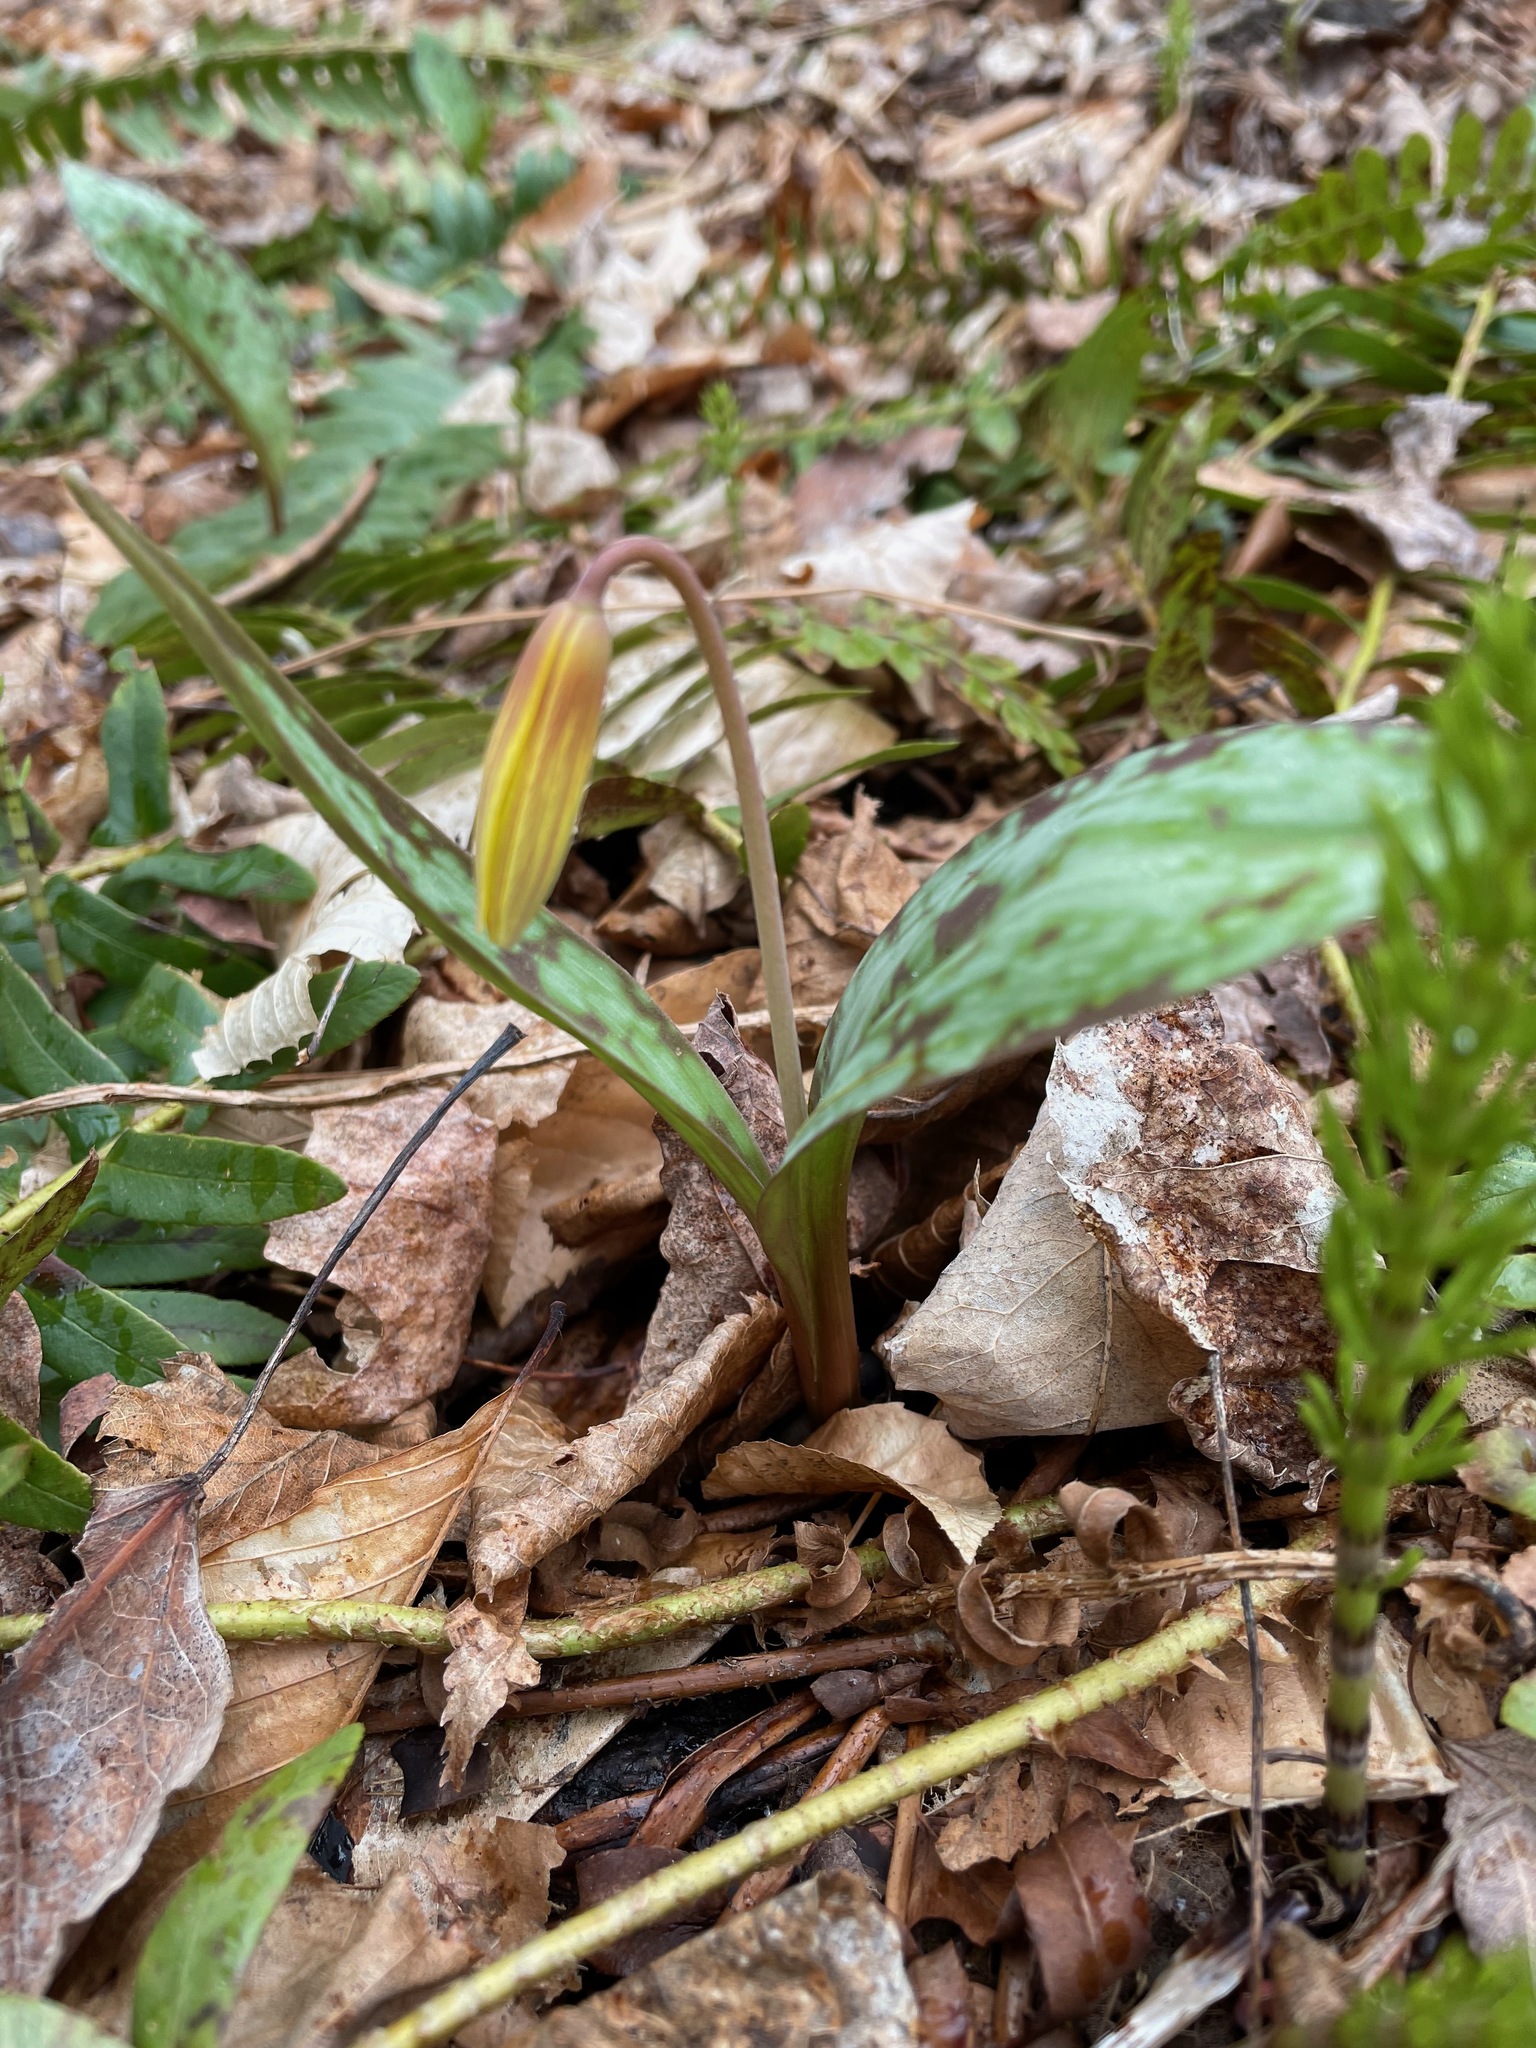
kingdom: Plantae
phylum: Tracheophyta
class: Liliopsida
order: Liliales
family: Liliaceae
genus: Erythronium
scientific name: Erythronium americanum
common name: Yellow adder's-tongue
